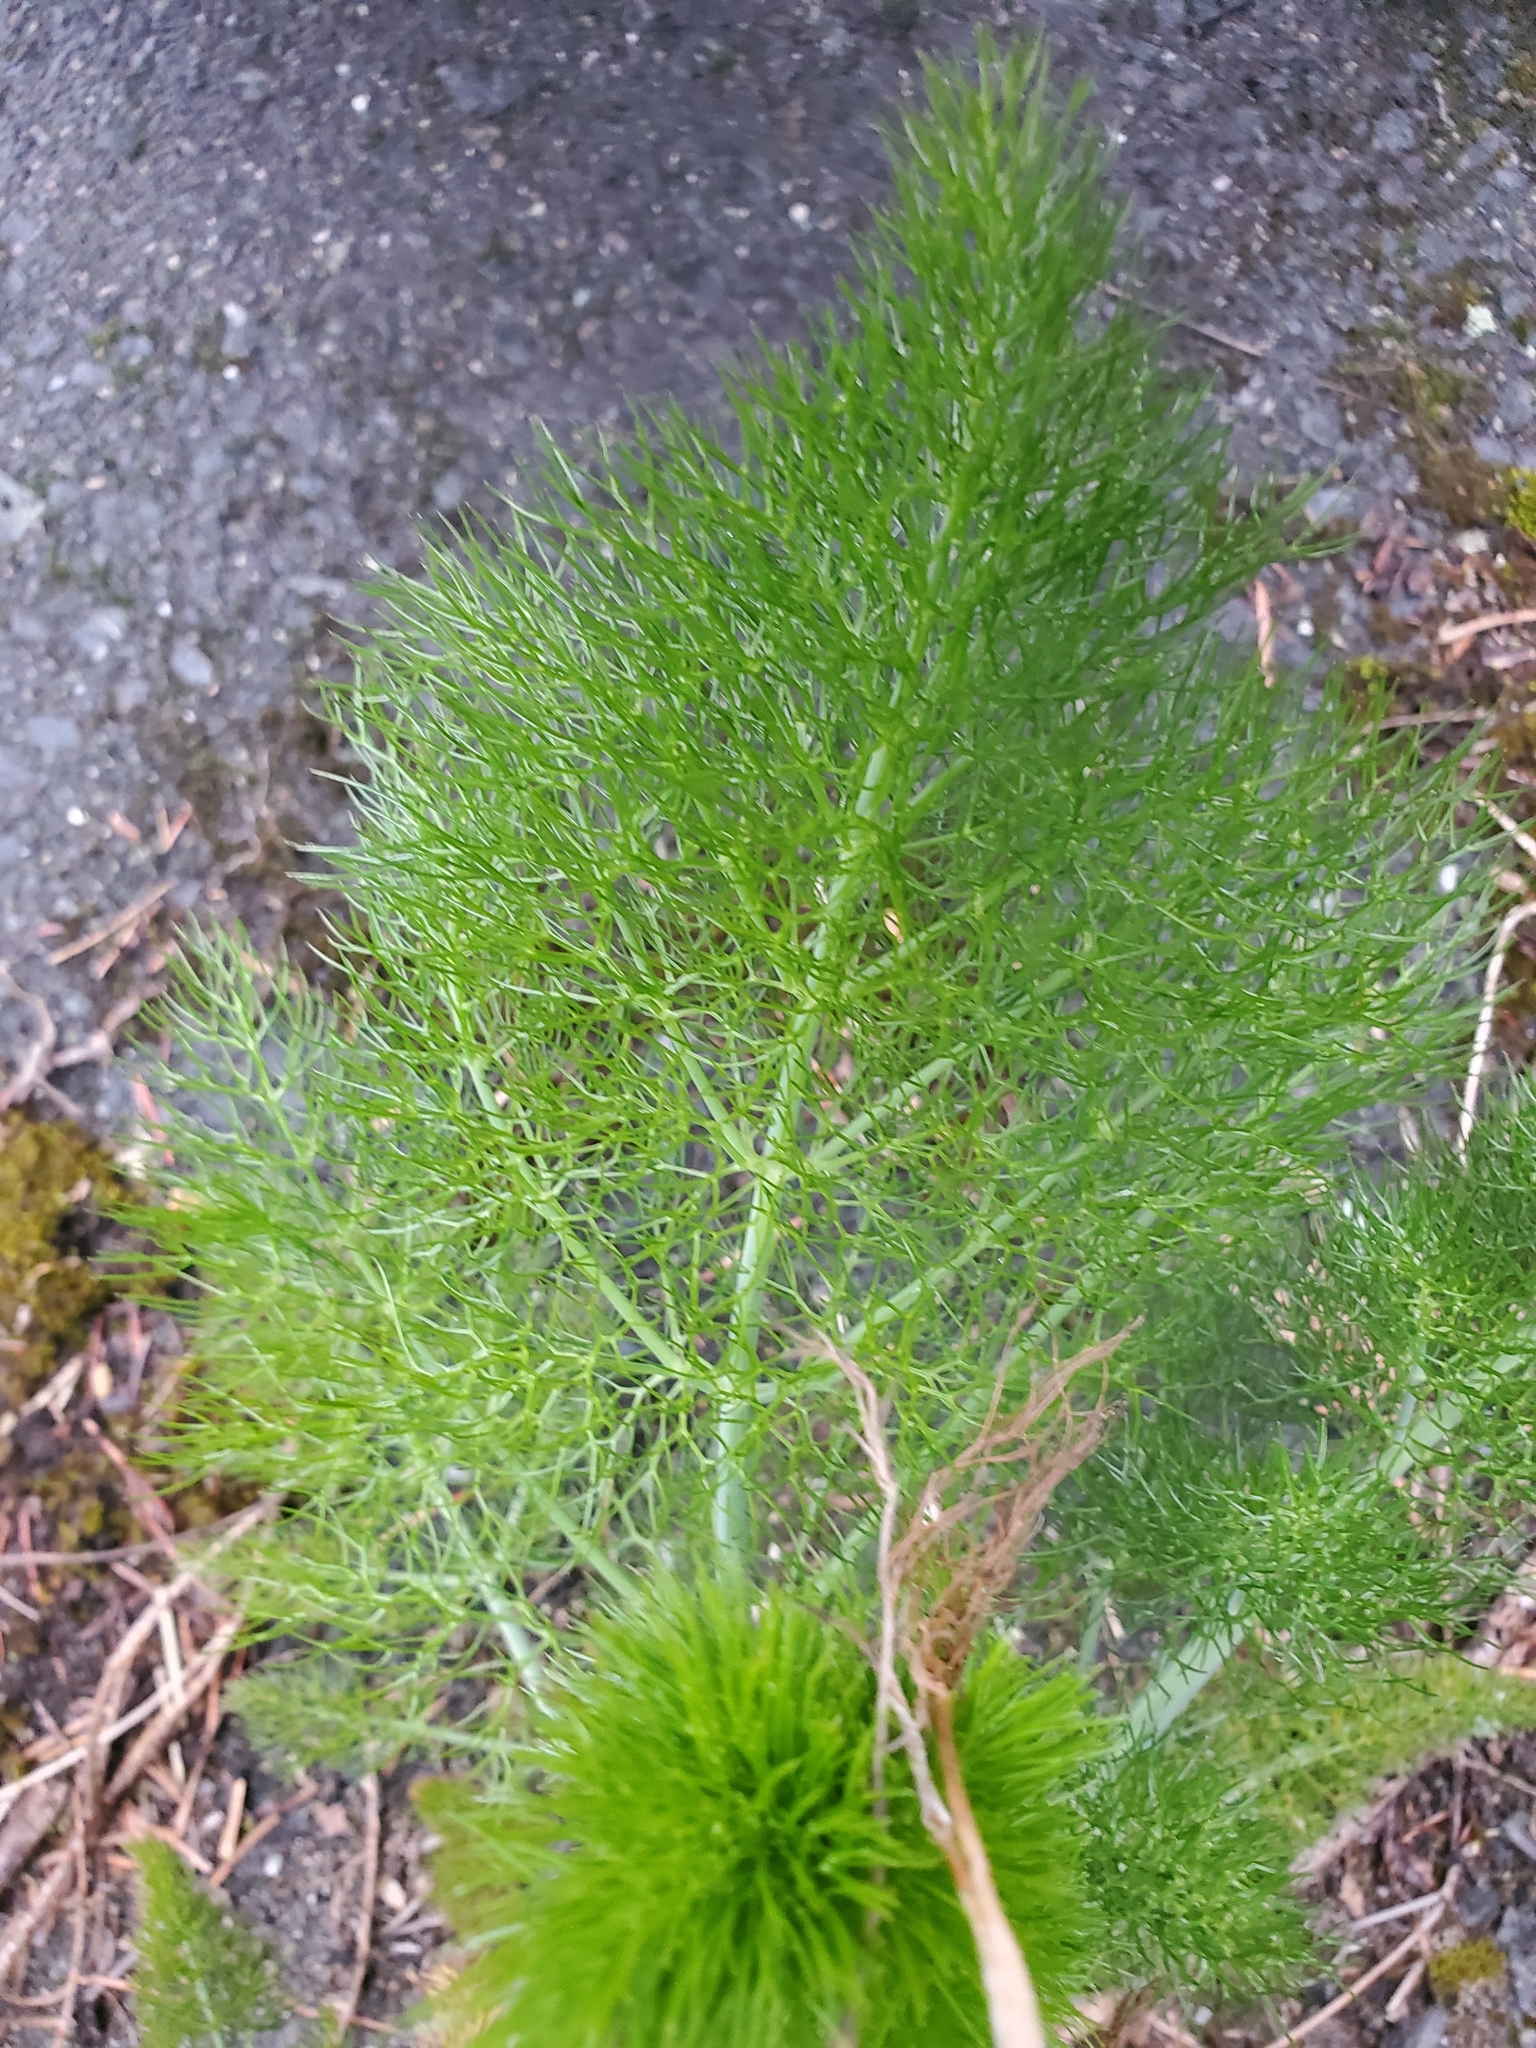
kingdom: Plantae
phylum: Tracheophyta
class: Magnoliopsida
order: Apiales
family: Apiaceae
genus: Foeniculum
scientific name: Foeniculum vulgare
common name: Fennel
